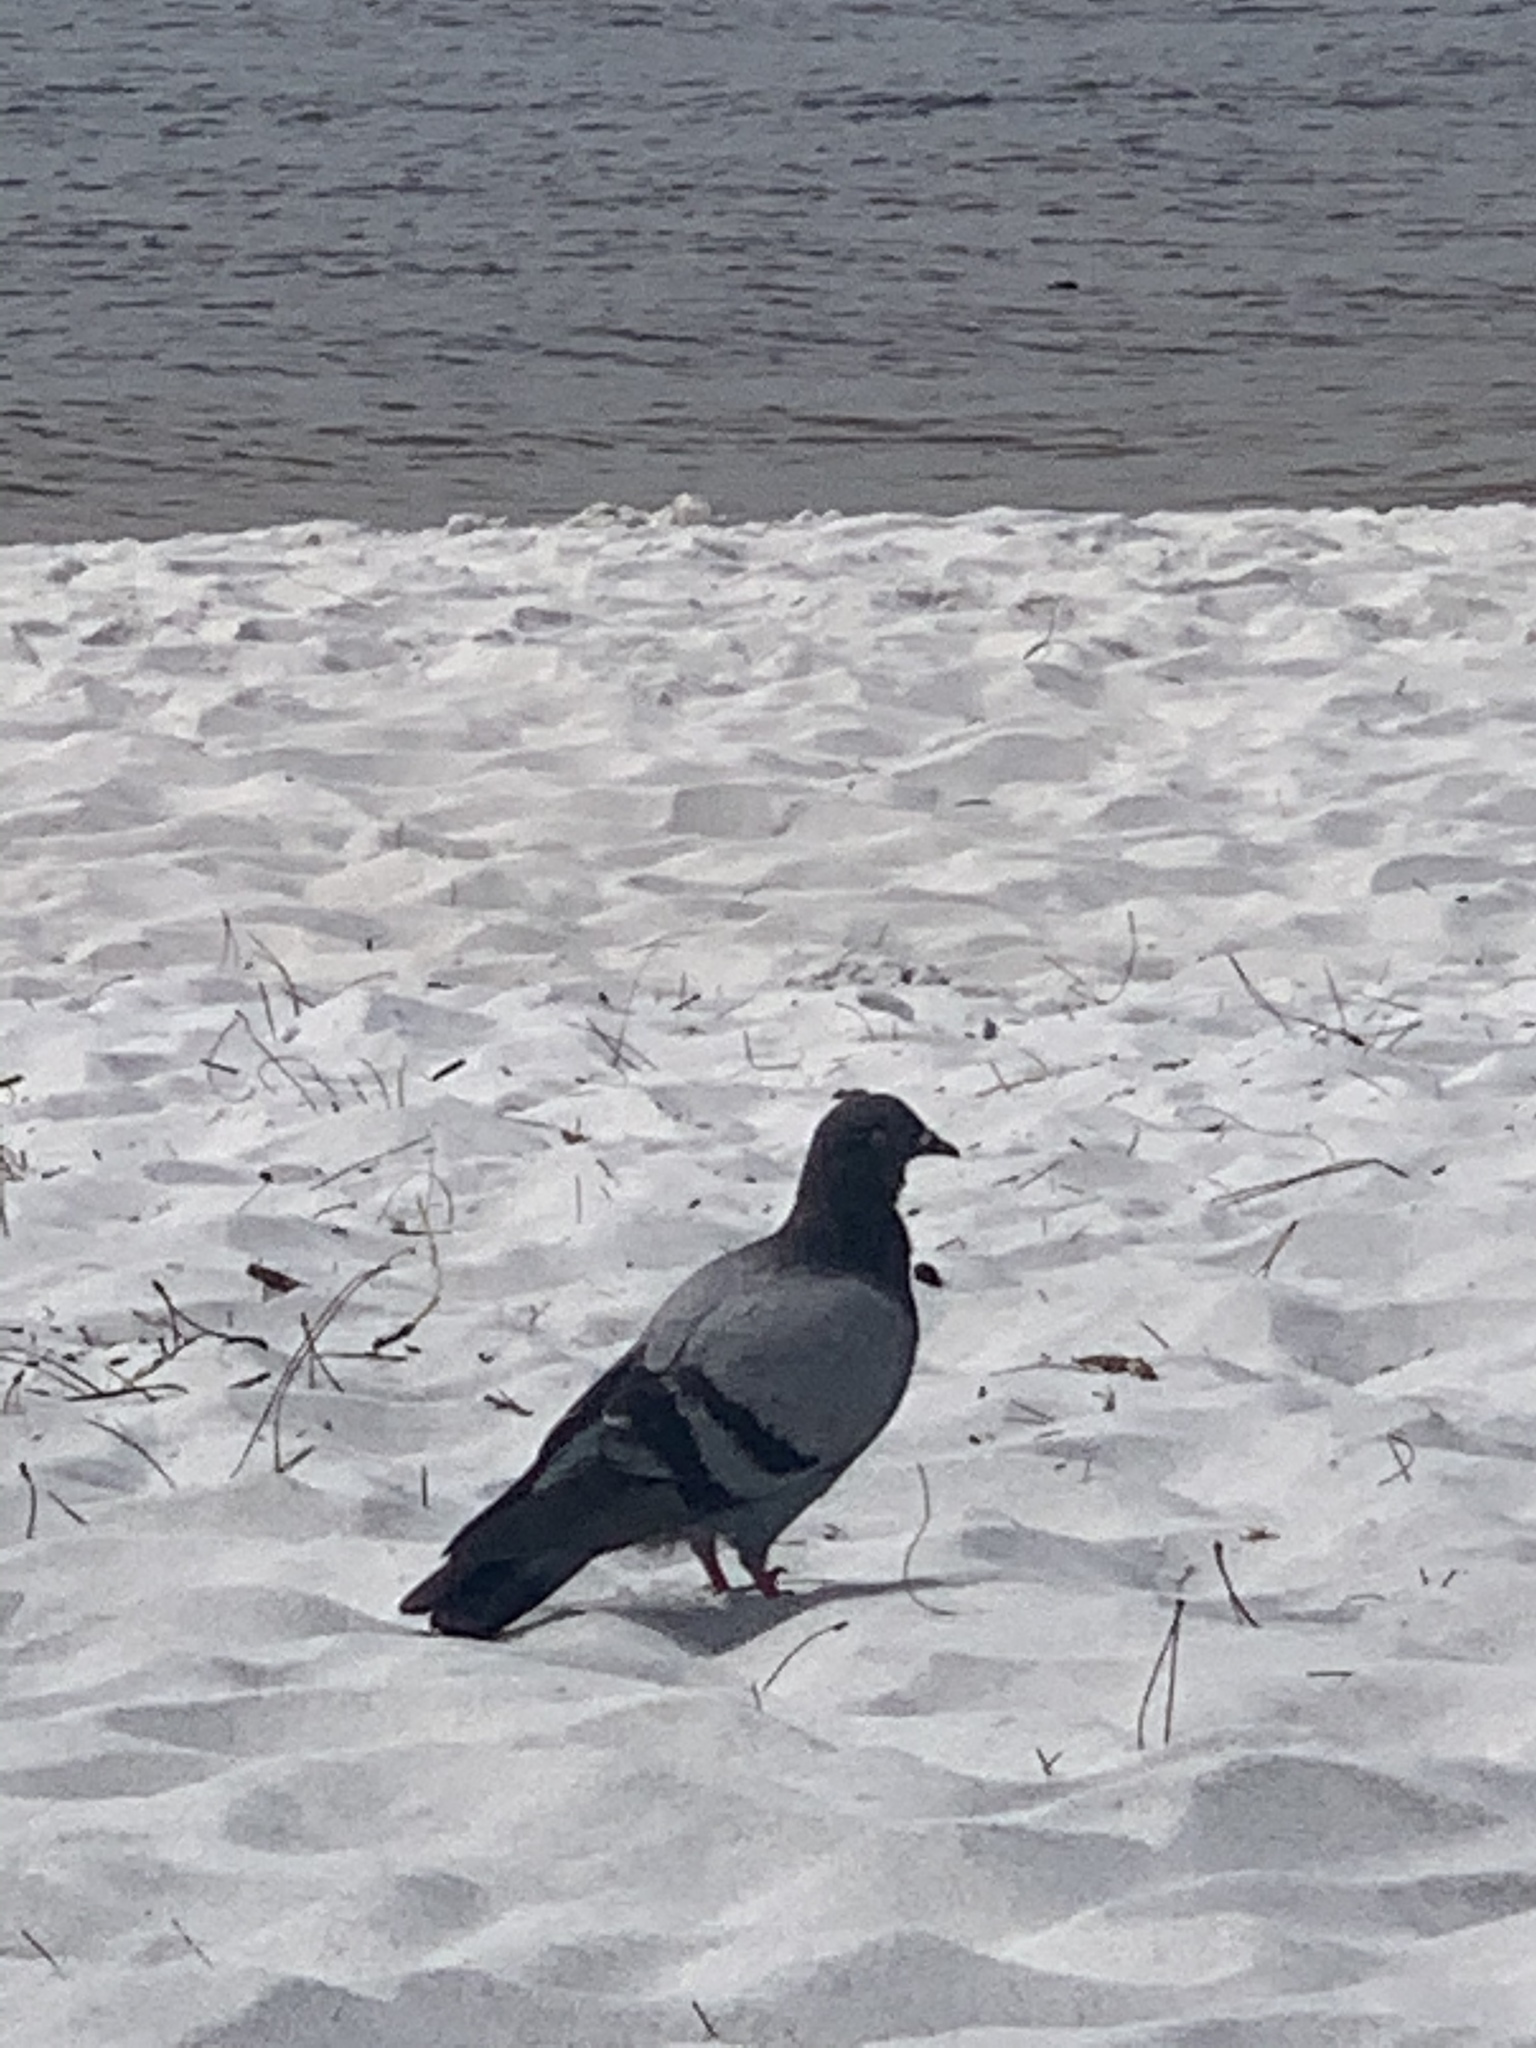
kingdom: Animalia
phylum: Chordata
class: Aves
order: Columbiformes
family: Columbidae
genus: Columba
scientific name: Columba livia
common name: Rock pigeon
